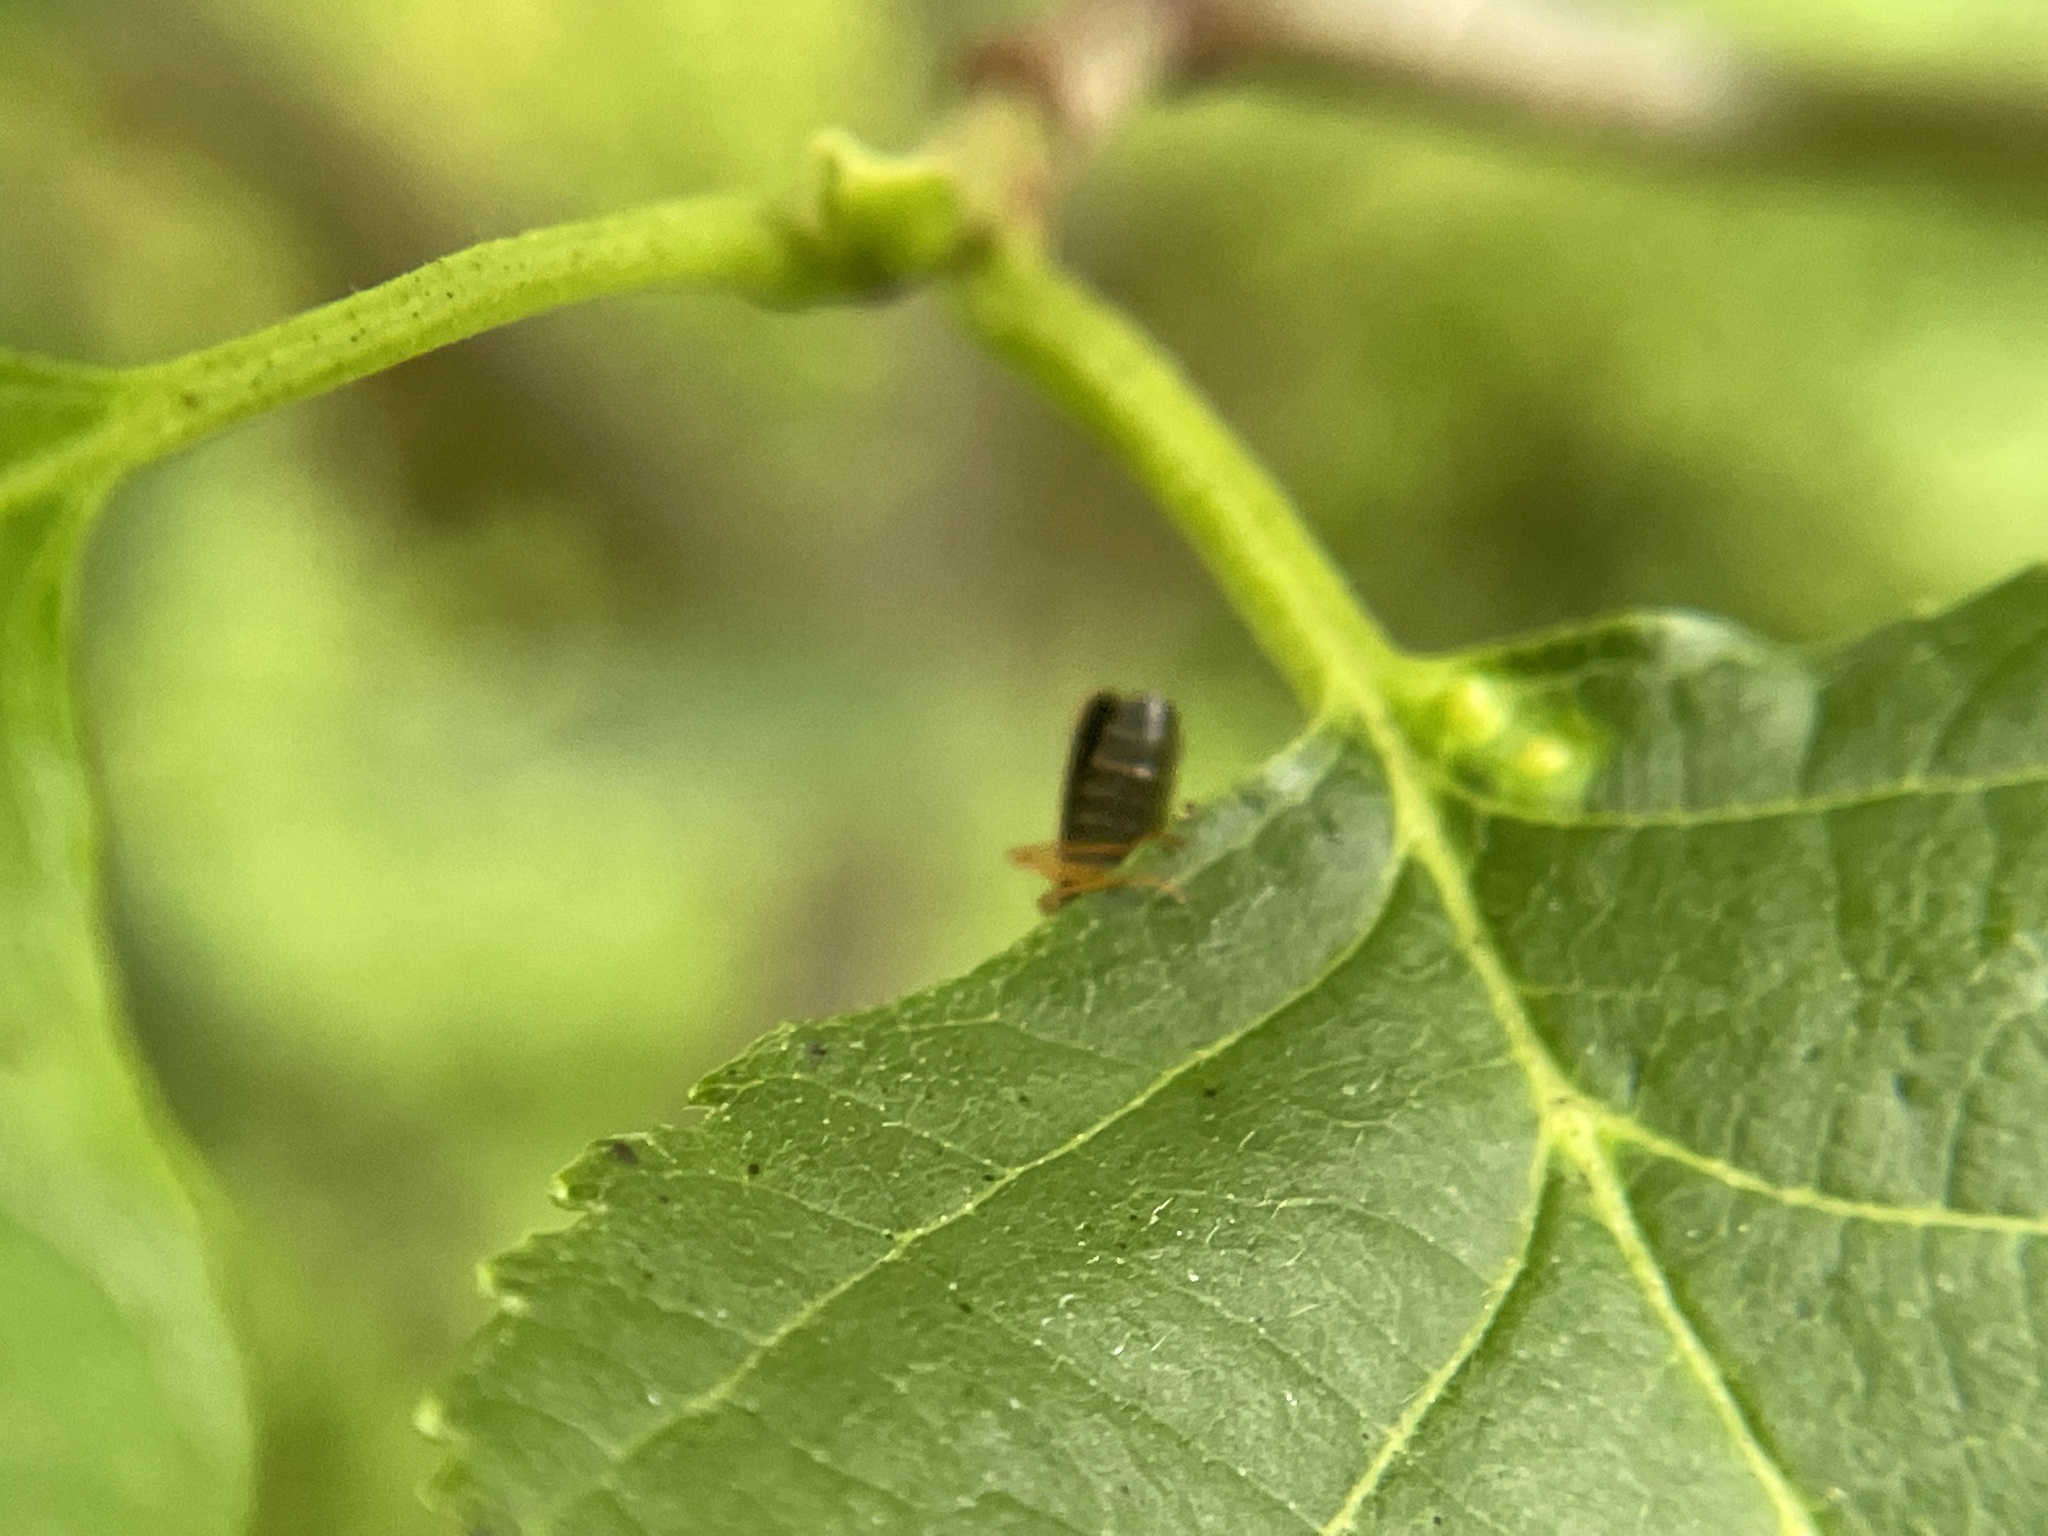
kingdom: Animalia
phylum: Arthropoda
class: Insecta
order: Coleoptera
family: Cantharidae
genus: Rhagonycha
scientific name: Rhagonycha lignosa
